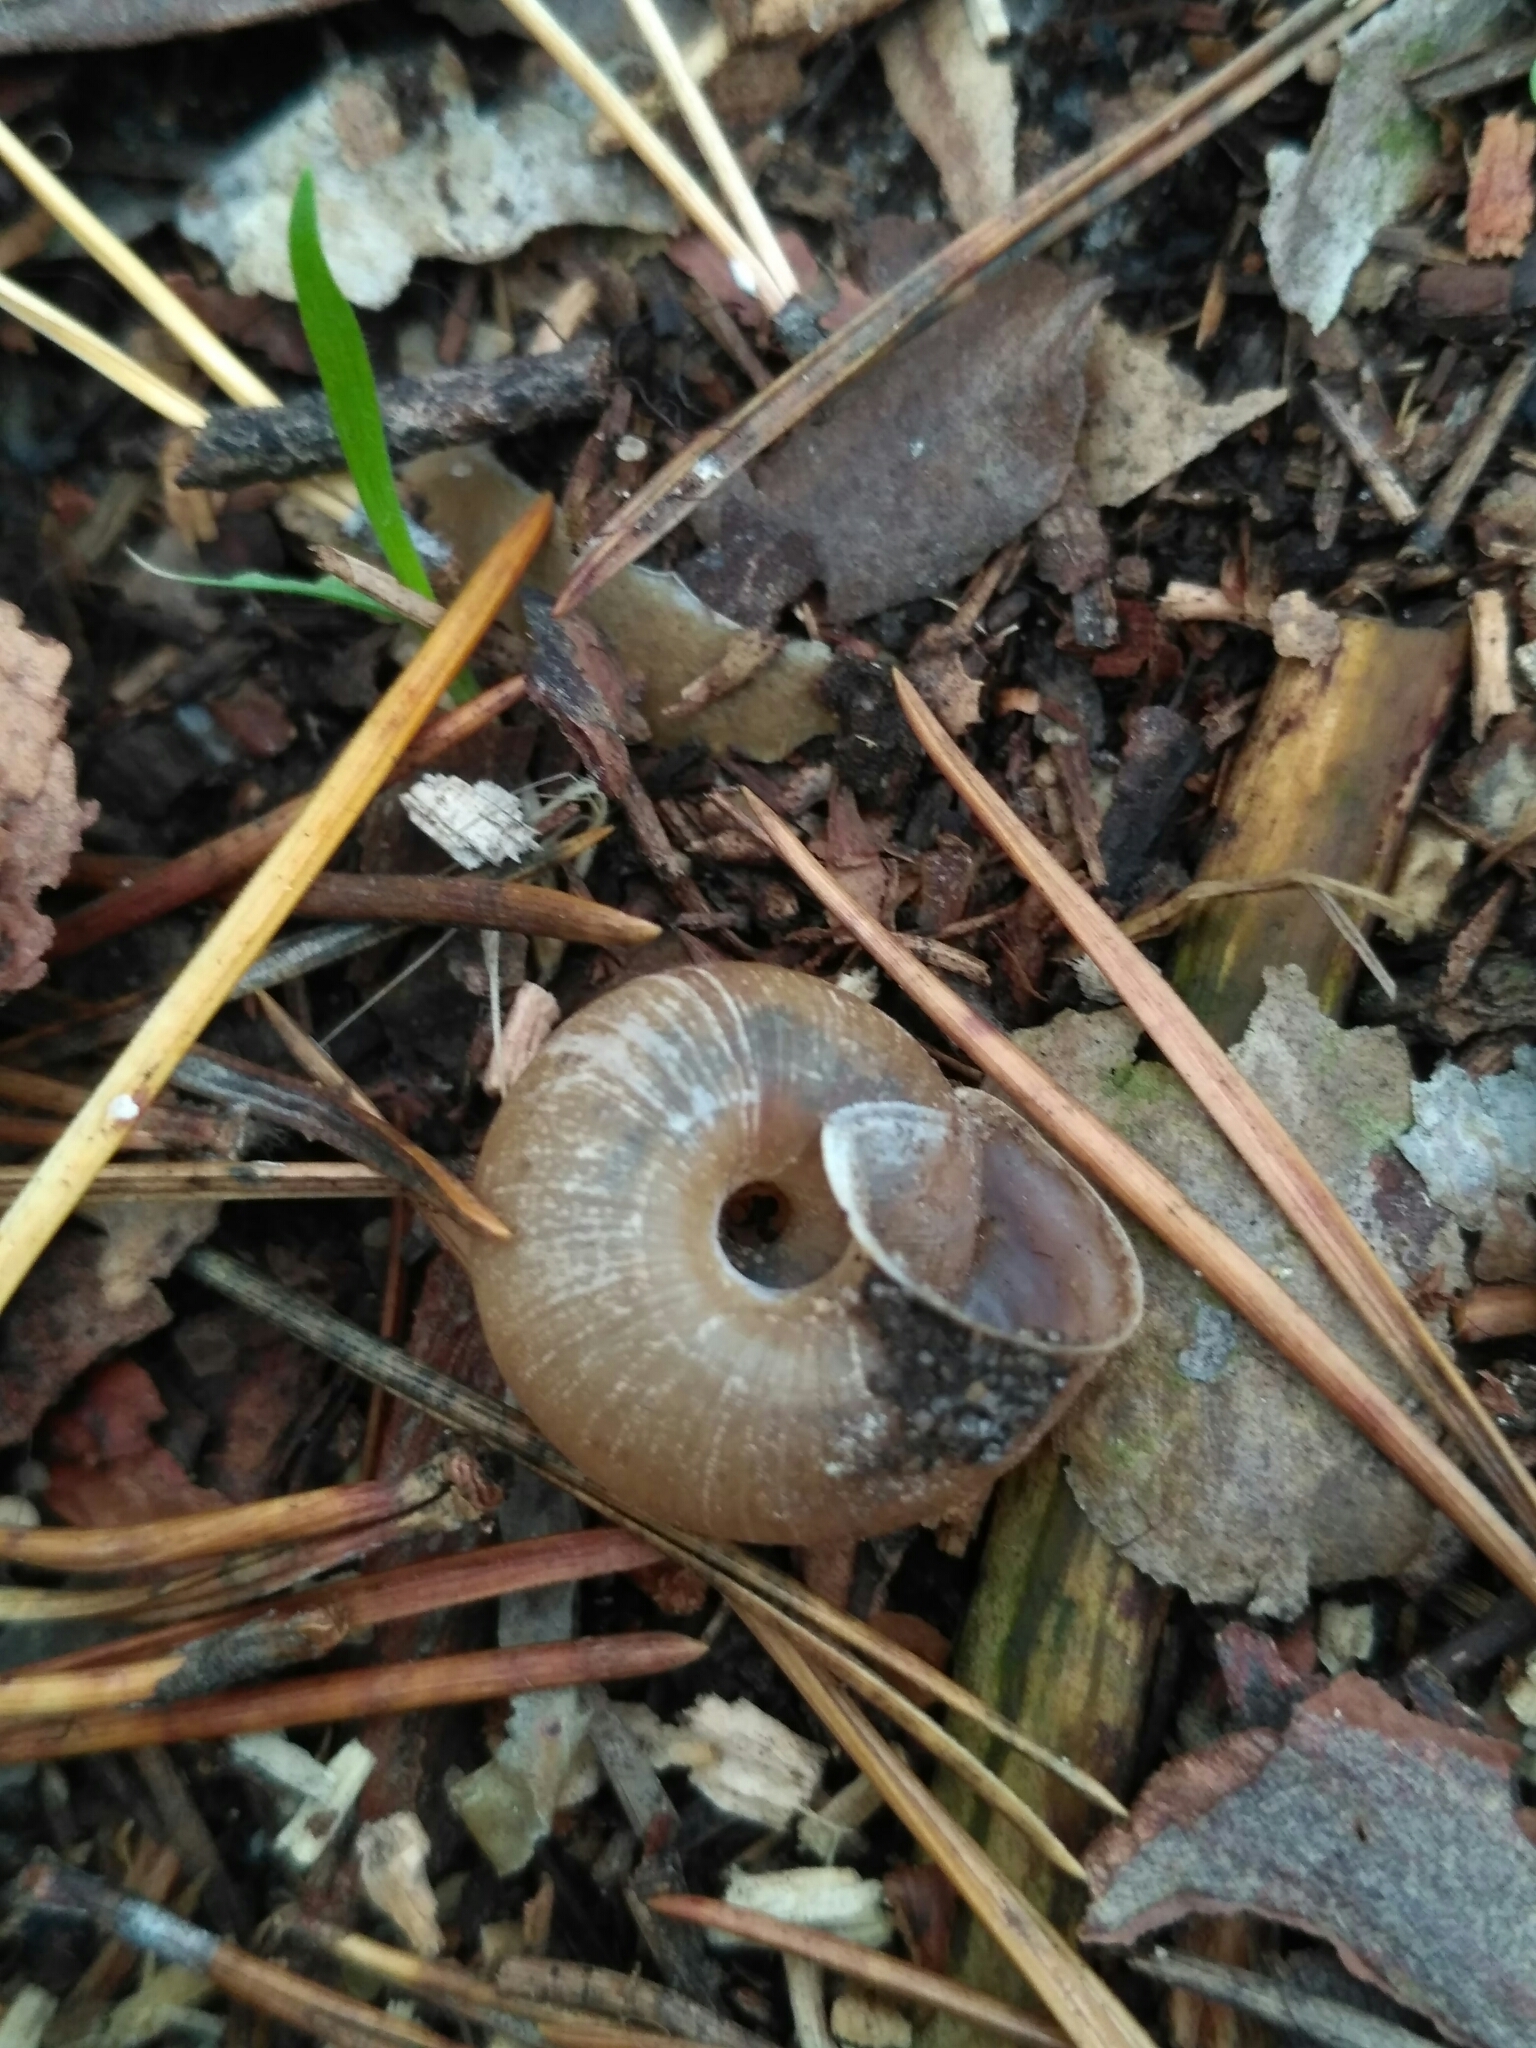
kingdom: Animalia
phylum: Mollusca
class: Gastropoda
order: Stylommatophora
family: Hygromiidae
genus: Euomphalia
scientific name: Euomphalia strigella
